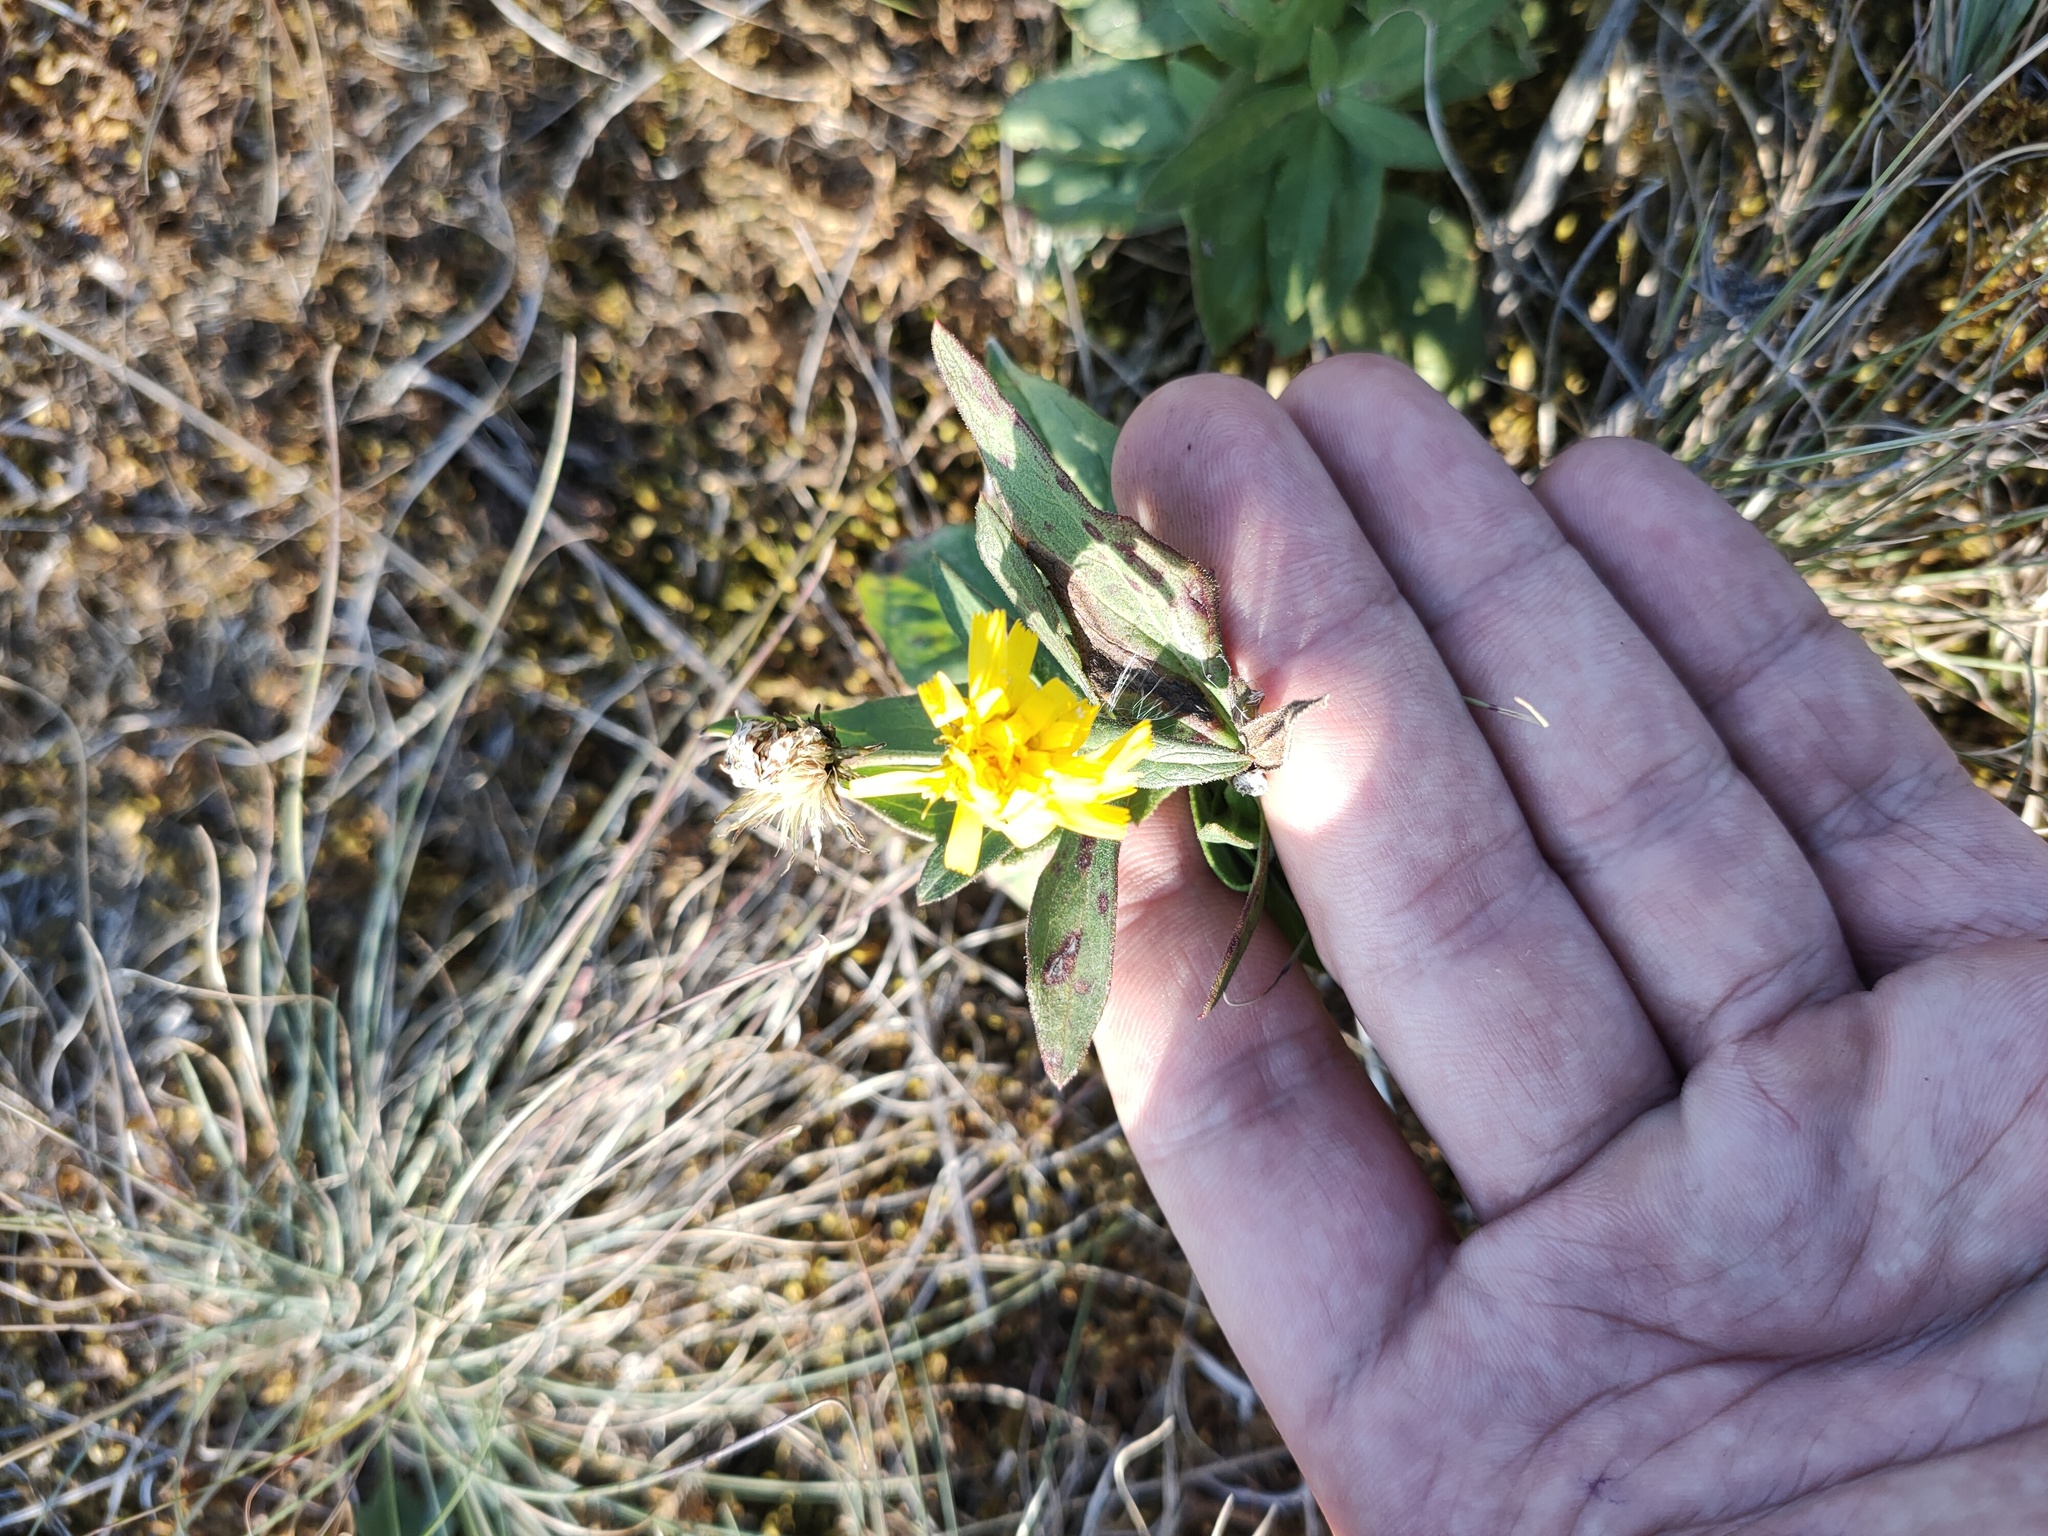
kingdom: Plantae
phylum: Tracheophyta
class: Magnoliopsida
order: Asterales
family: Asteraceae
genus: Hieracium
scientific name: Hieracium umbellatum
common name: Northern hawkweed
